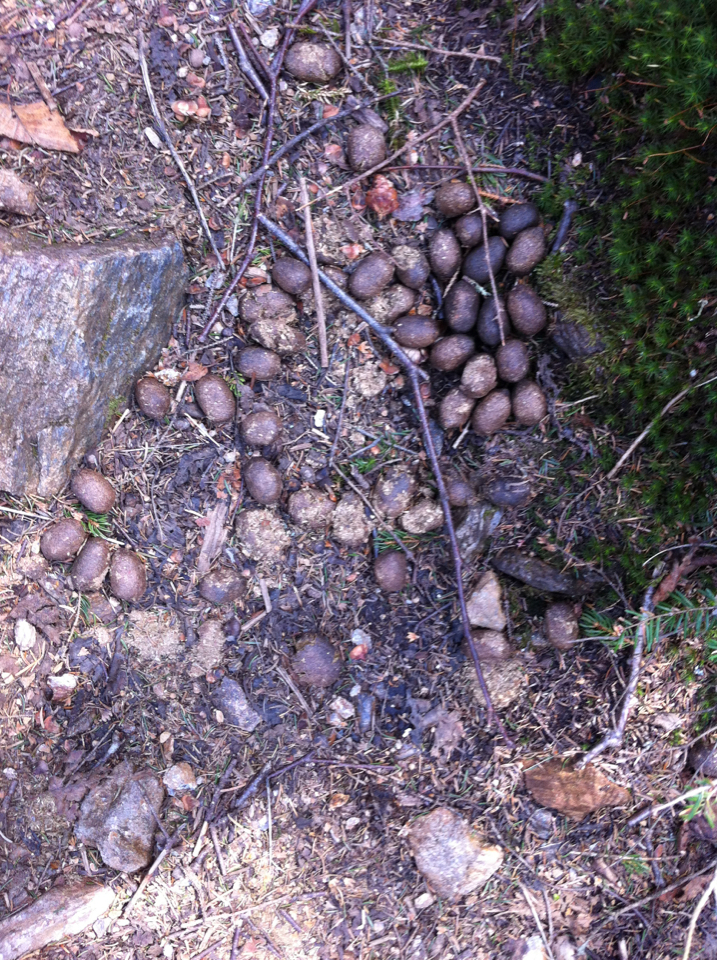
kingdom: Animalia
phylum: Chordata
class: Mammalia
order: Artiodactyla
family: Cervidae
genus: Alces
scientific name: Alces alces
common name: Moose
